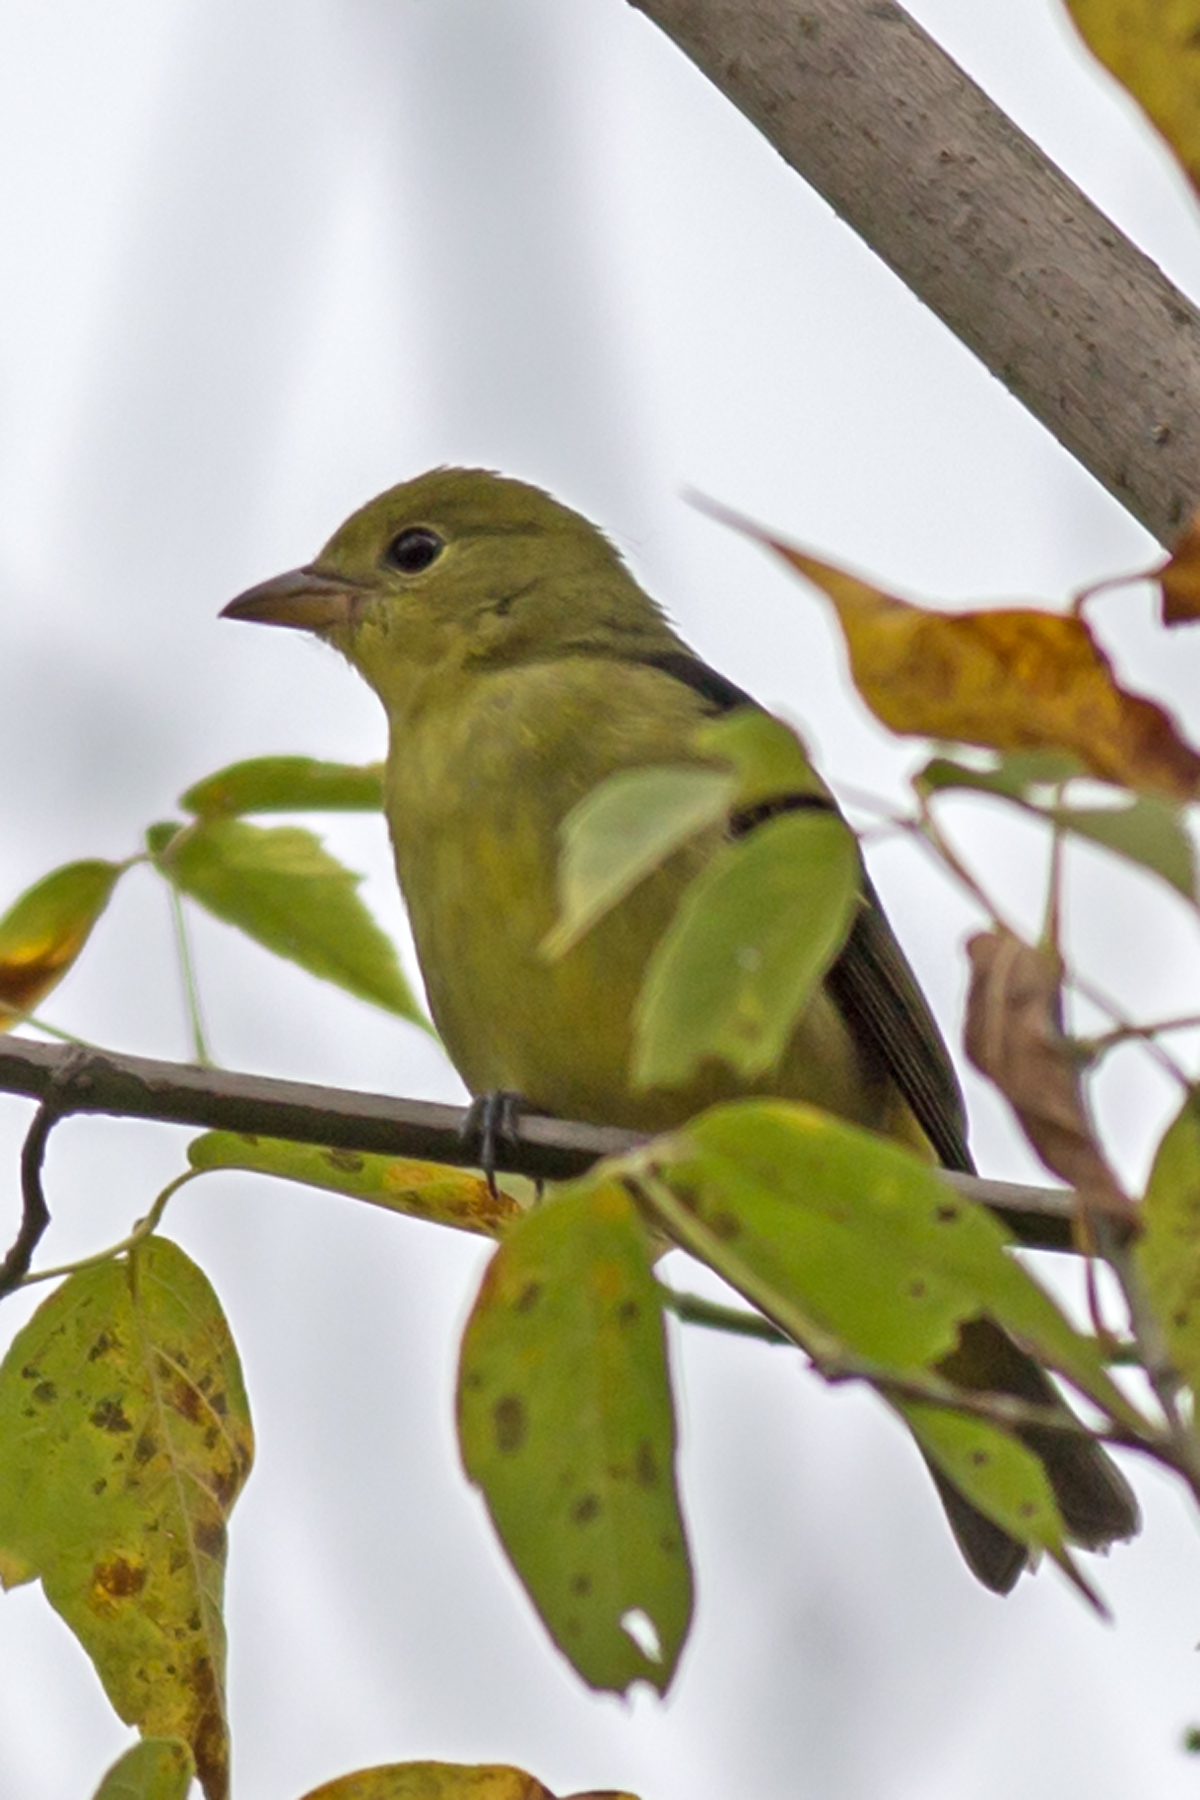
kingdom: Animalia
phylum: Chordata
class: Aves
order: Passeriformes
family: Cardinalidae
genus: Piranga
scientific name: Piranga olivacea
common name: Scarlet tanager
